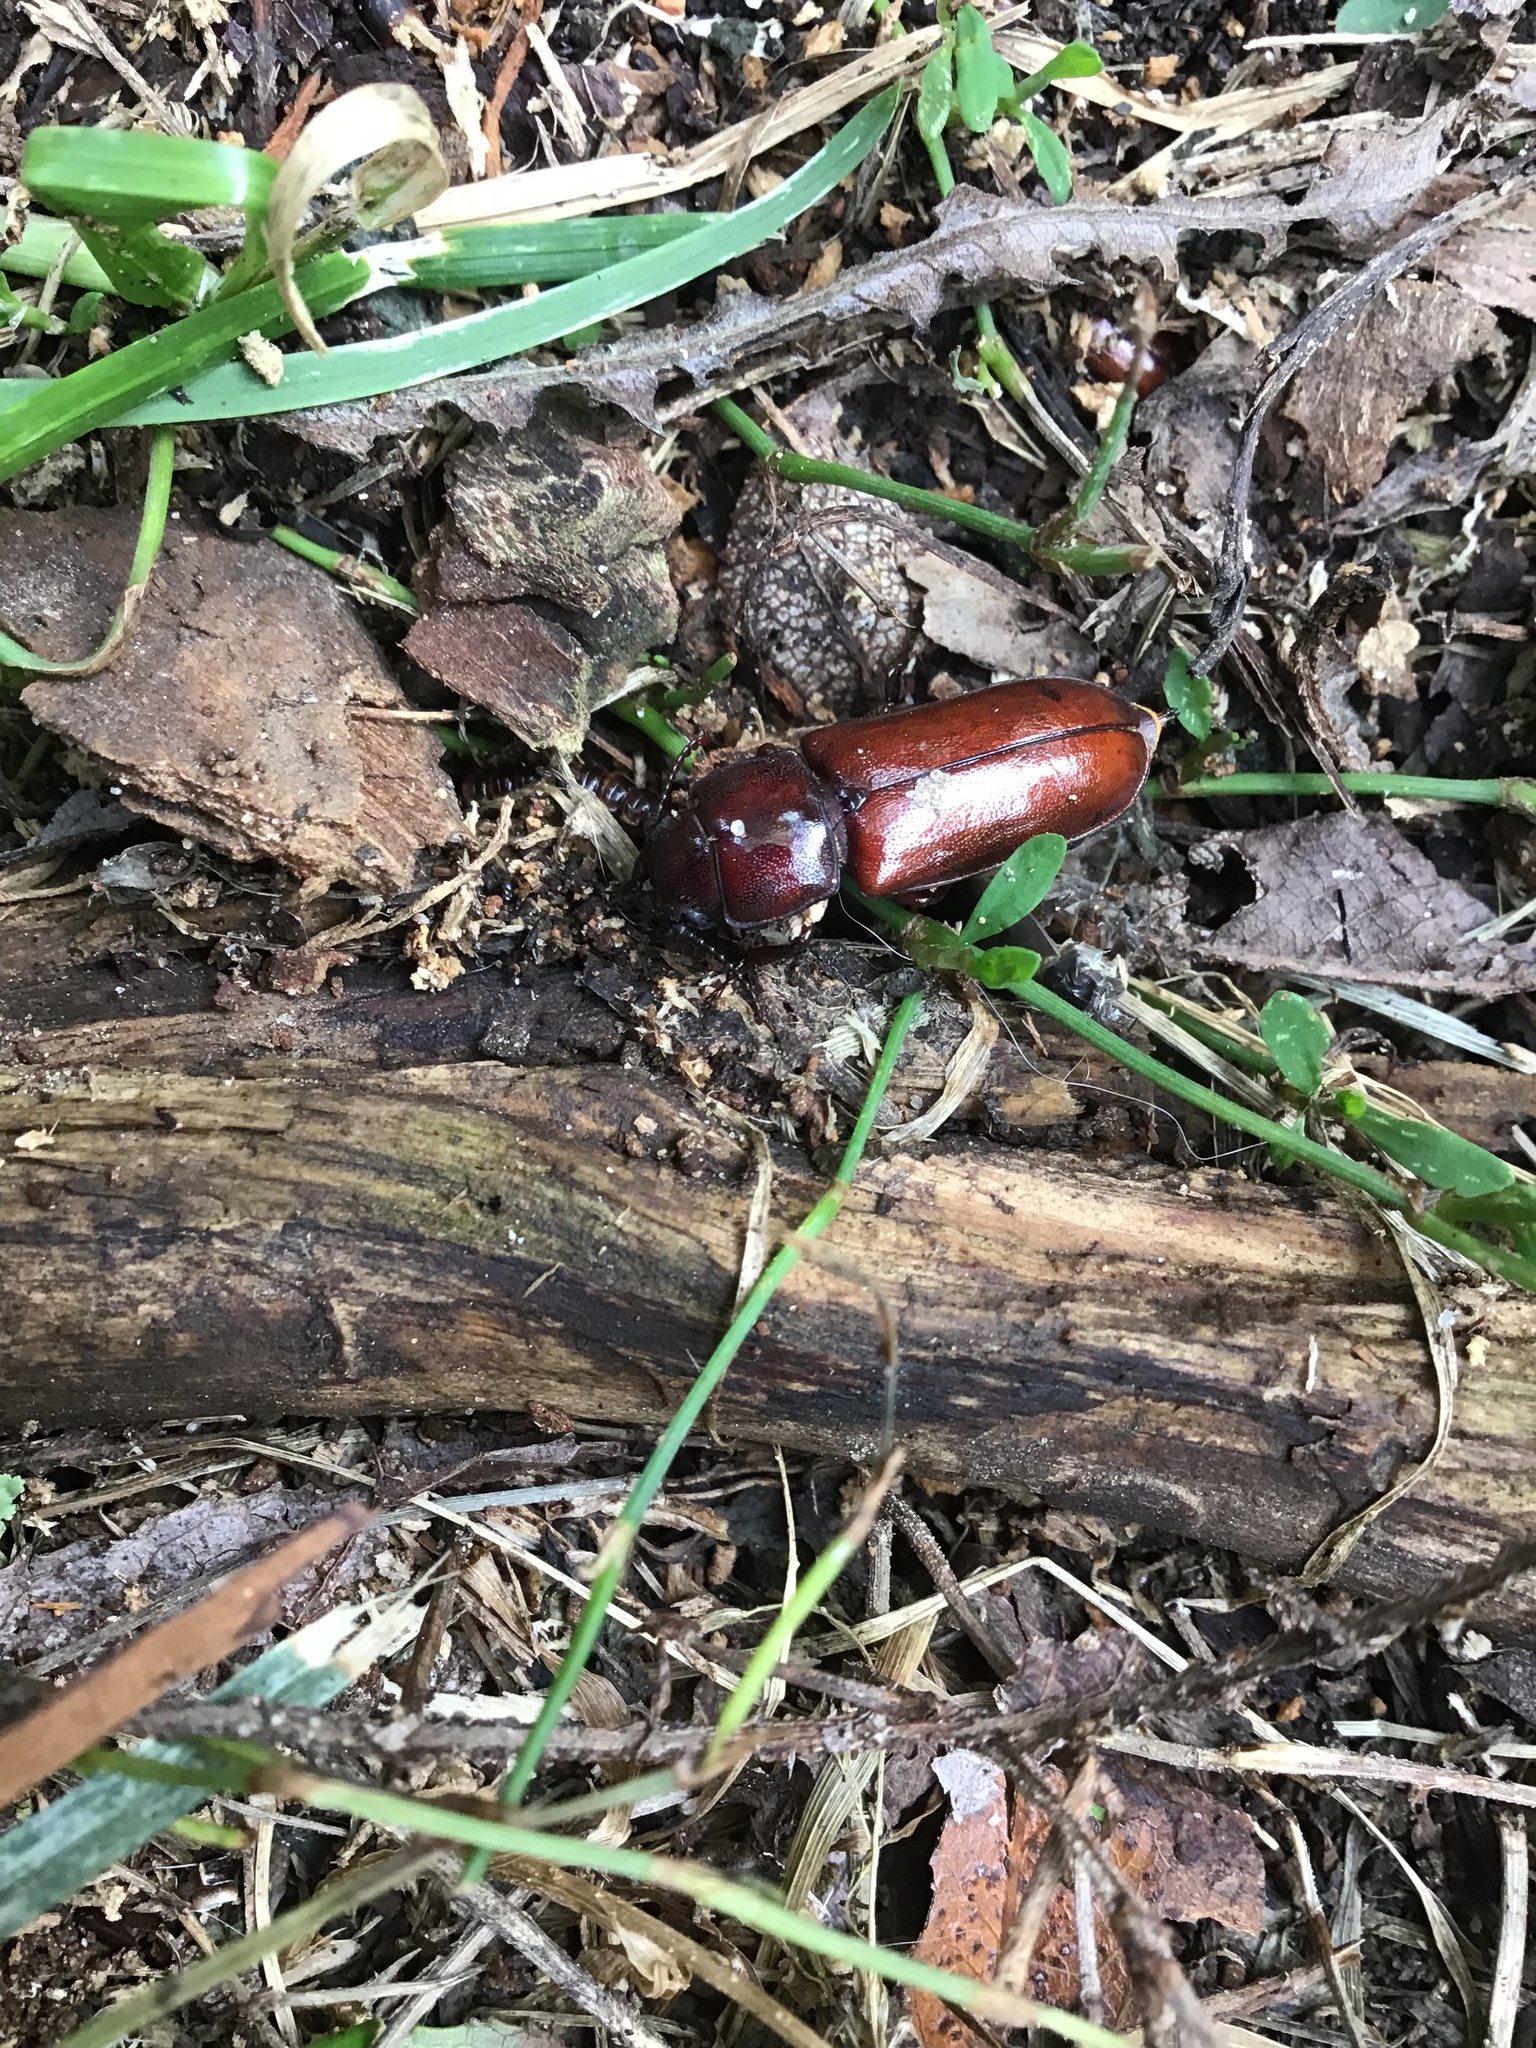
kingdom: Animalia
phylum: Arthropoda
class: Insecta
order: Coleoptera
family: Cerambycidae
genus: Neandra
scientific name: Neandra brunnea
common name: Pole borer
